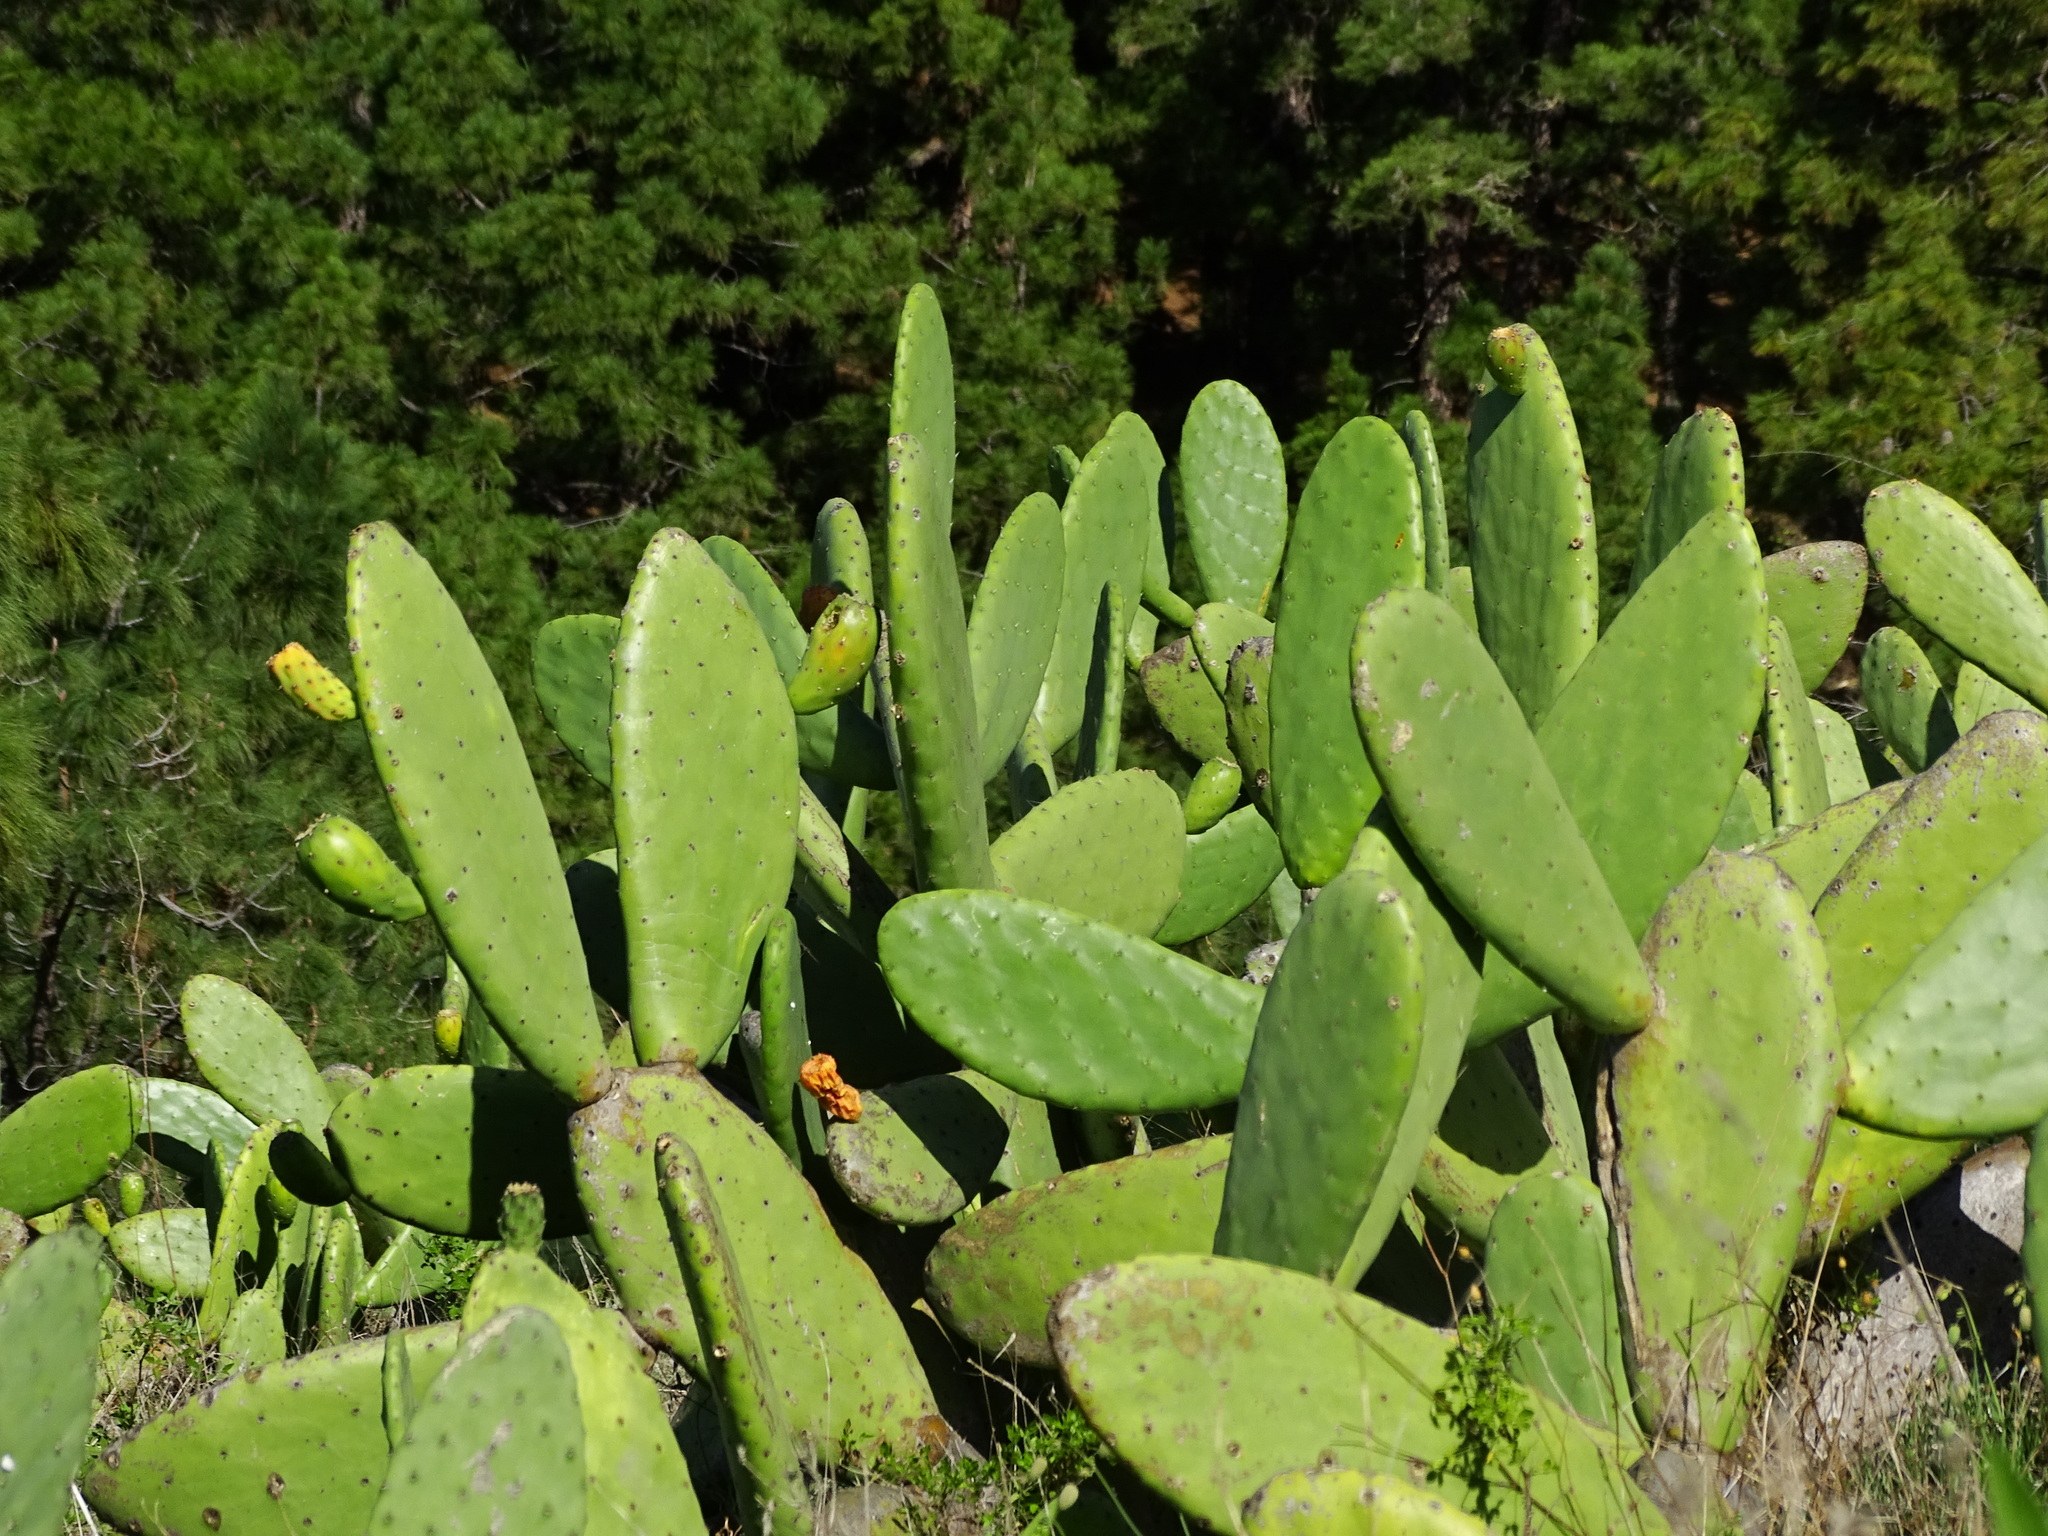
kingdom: Plantae
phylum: Tracheophyta
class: Magnoliopsida
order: Caryophyllales
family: Cactaceae
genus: Opuntia
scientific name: Opuntia ficus-indica
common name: Barbary fig
